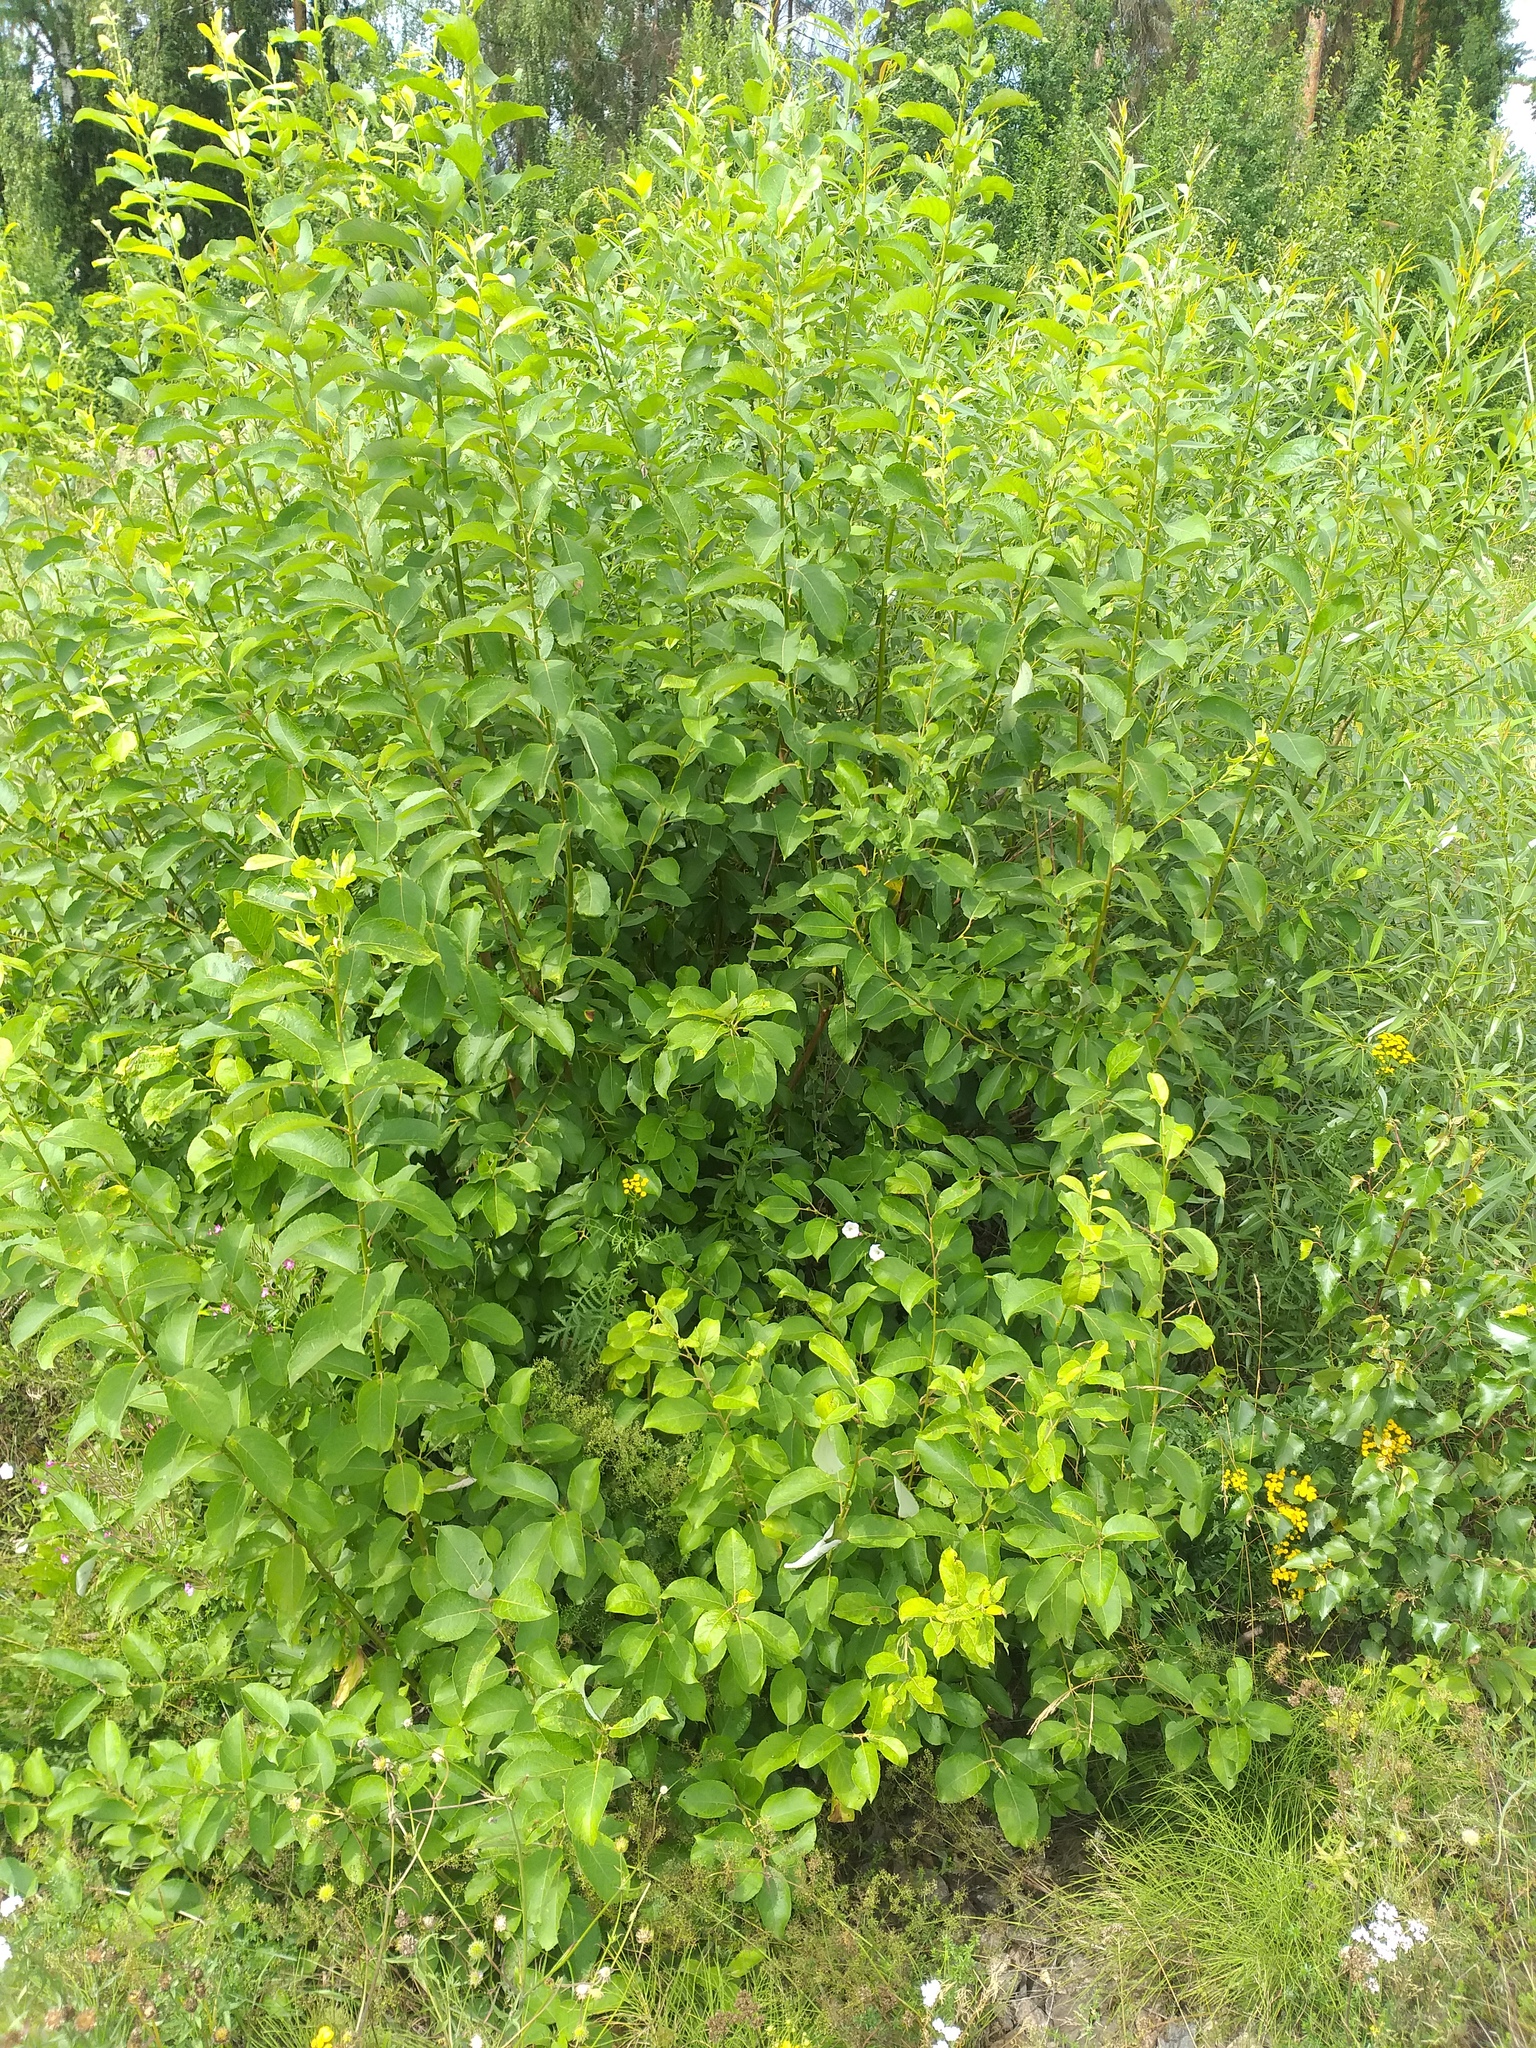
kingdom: Plantae
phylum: Tracheophyta
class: Magnoliopsida
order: Malpighiales
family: Salicaceae
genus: Salix
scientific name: Salix caprea
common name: Goat willow
